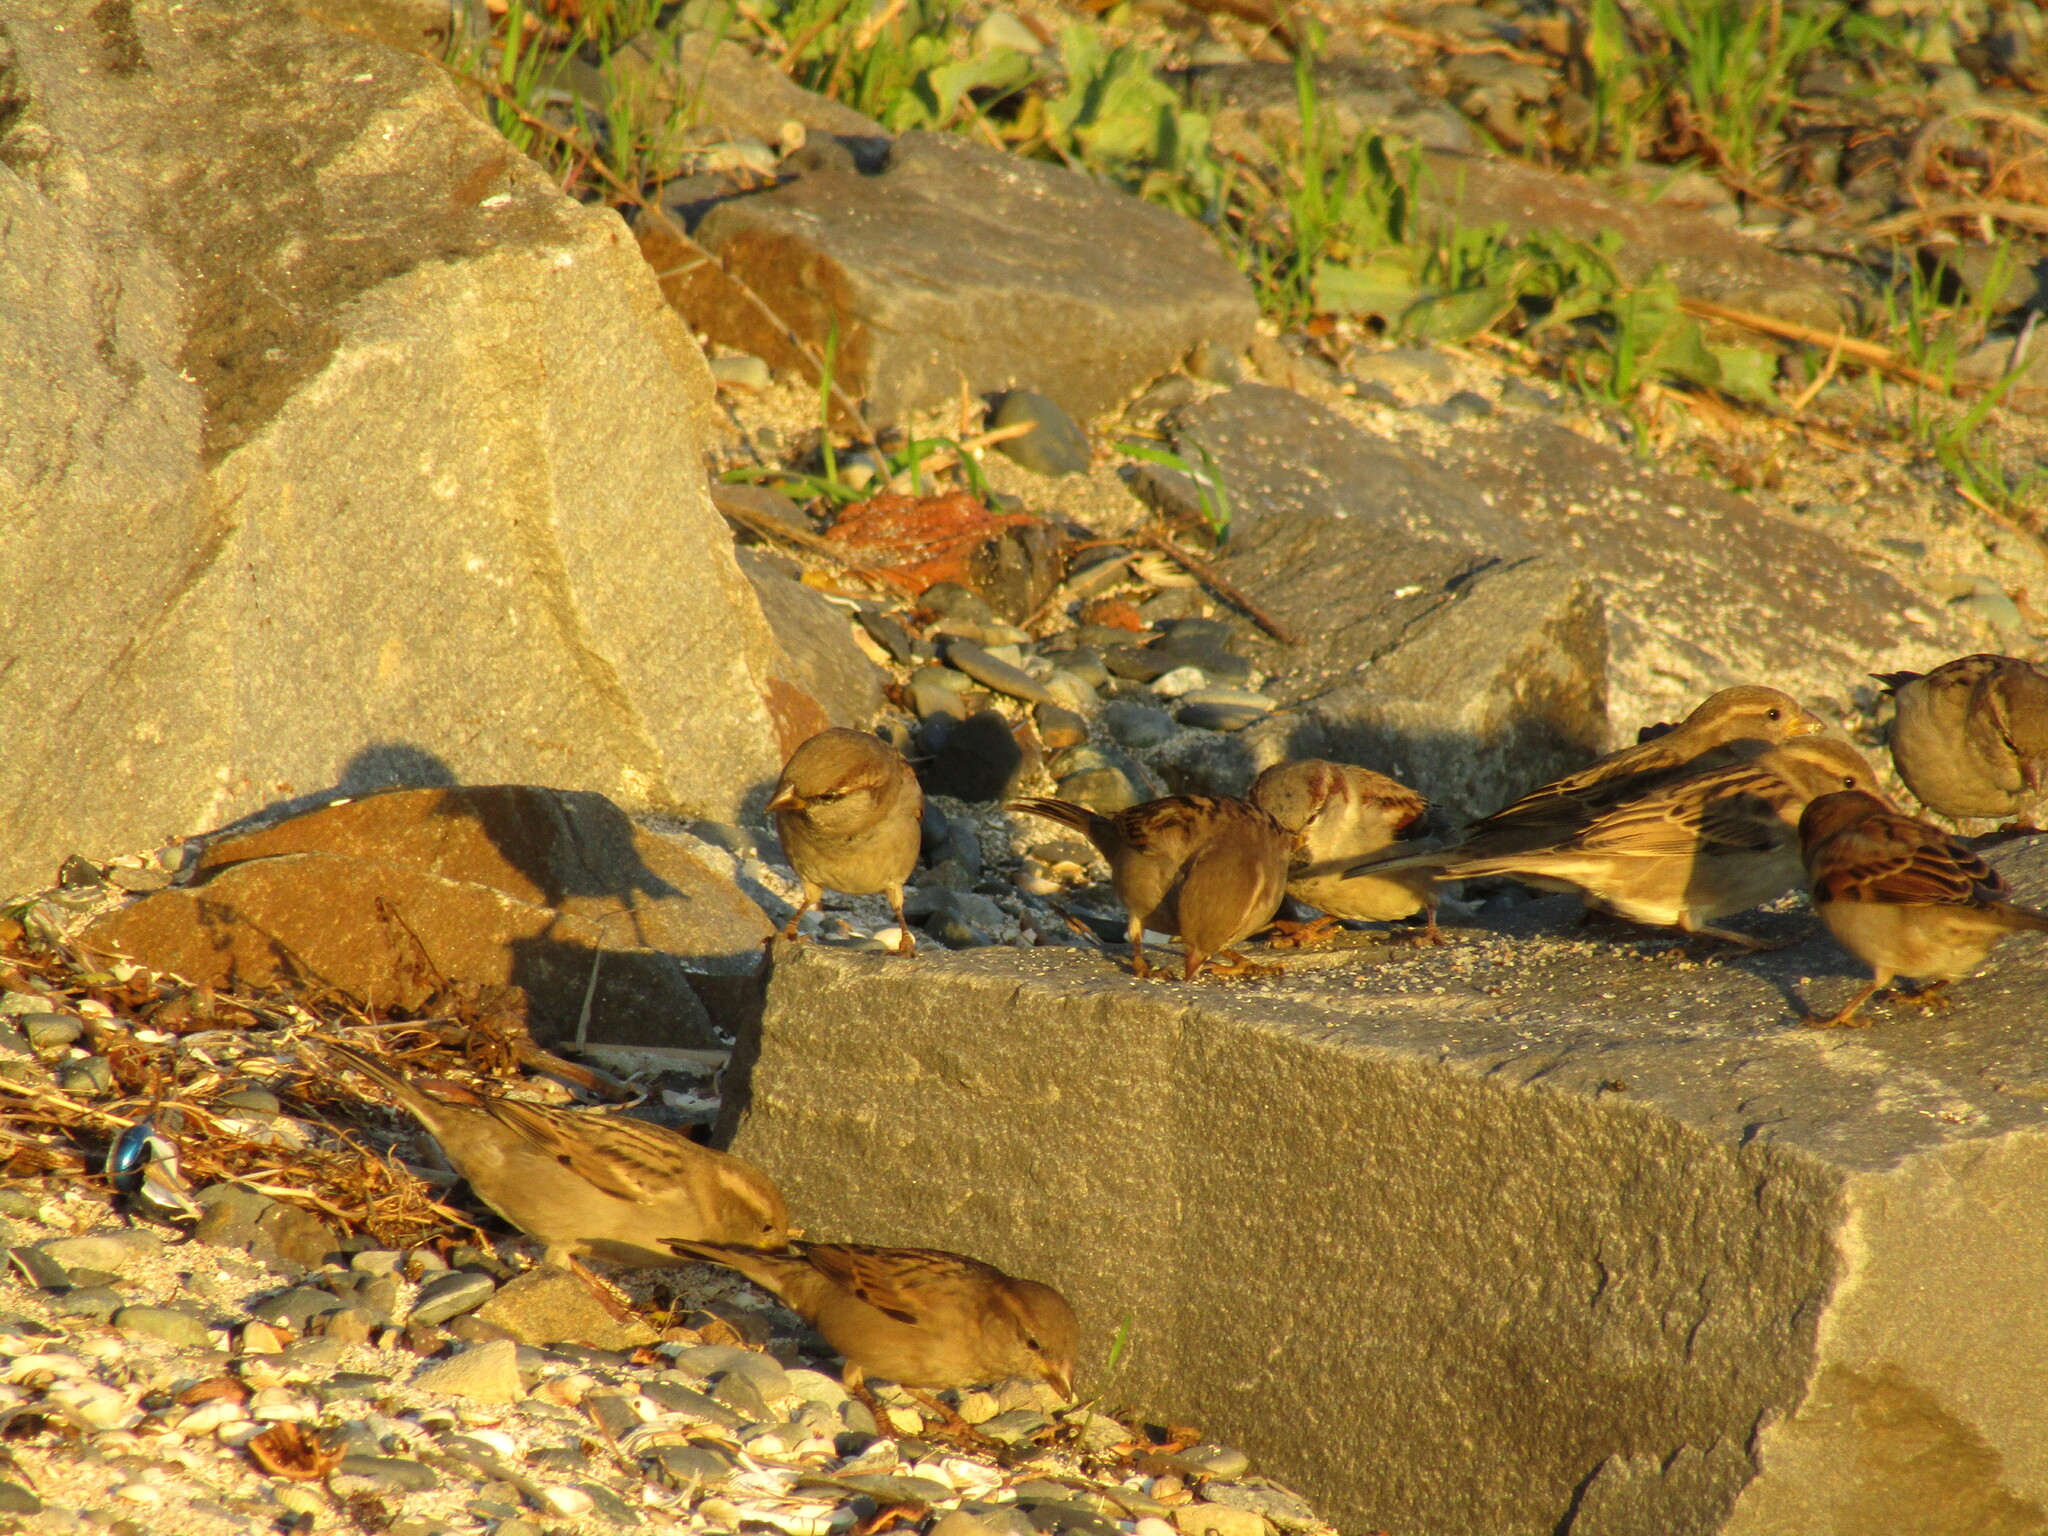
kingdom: Animalia
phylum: Chordata
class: Aves
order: Passeriformes
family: Passeridae
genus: Passer
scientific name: Passer domesticus
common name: House sparrow
